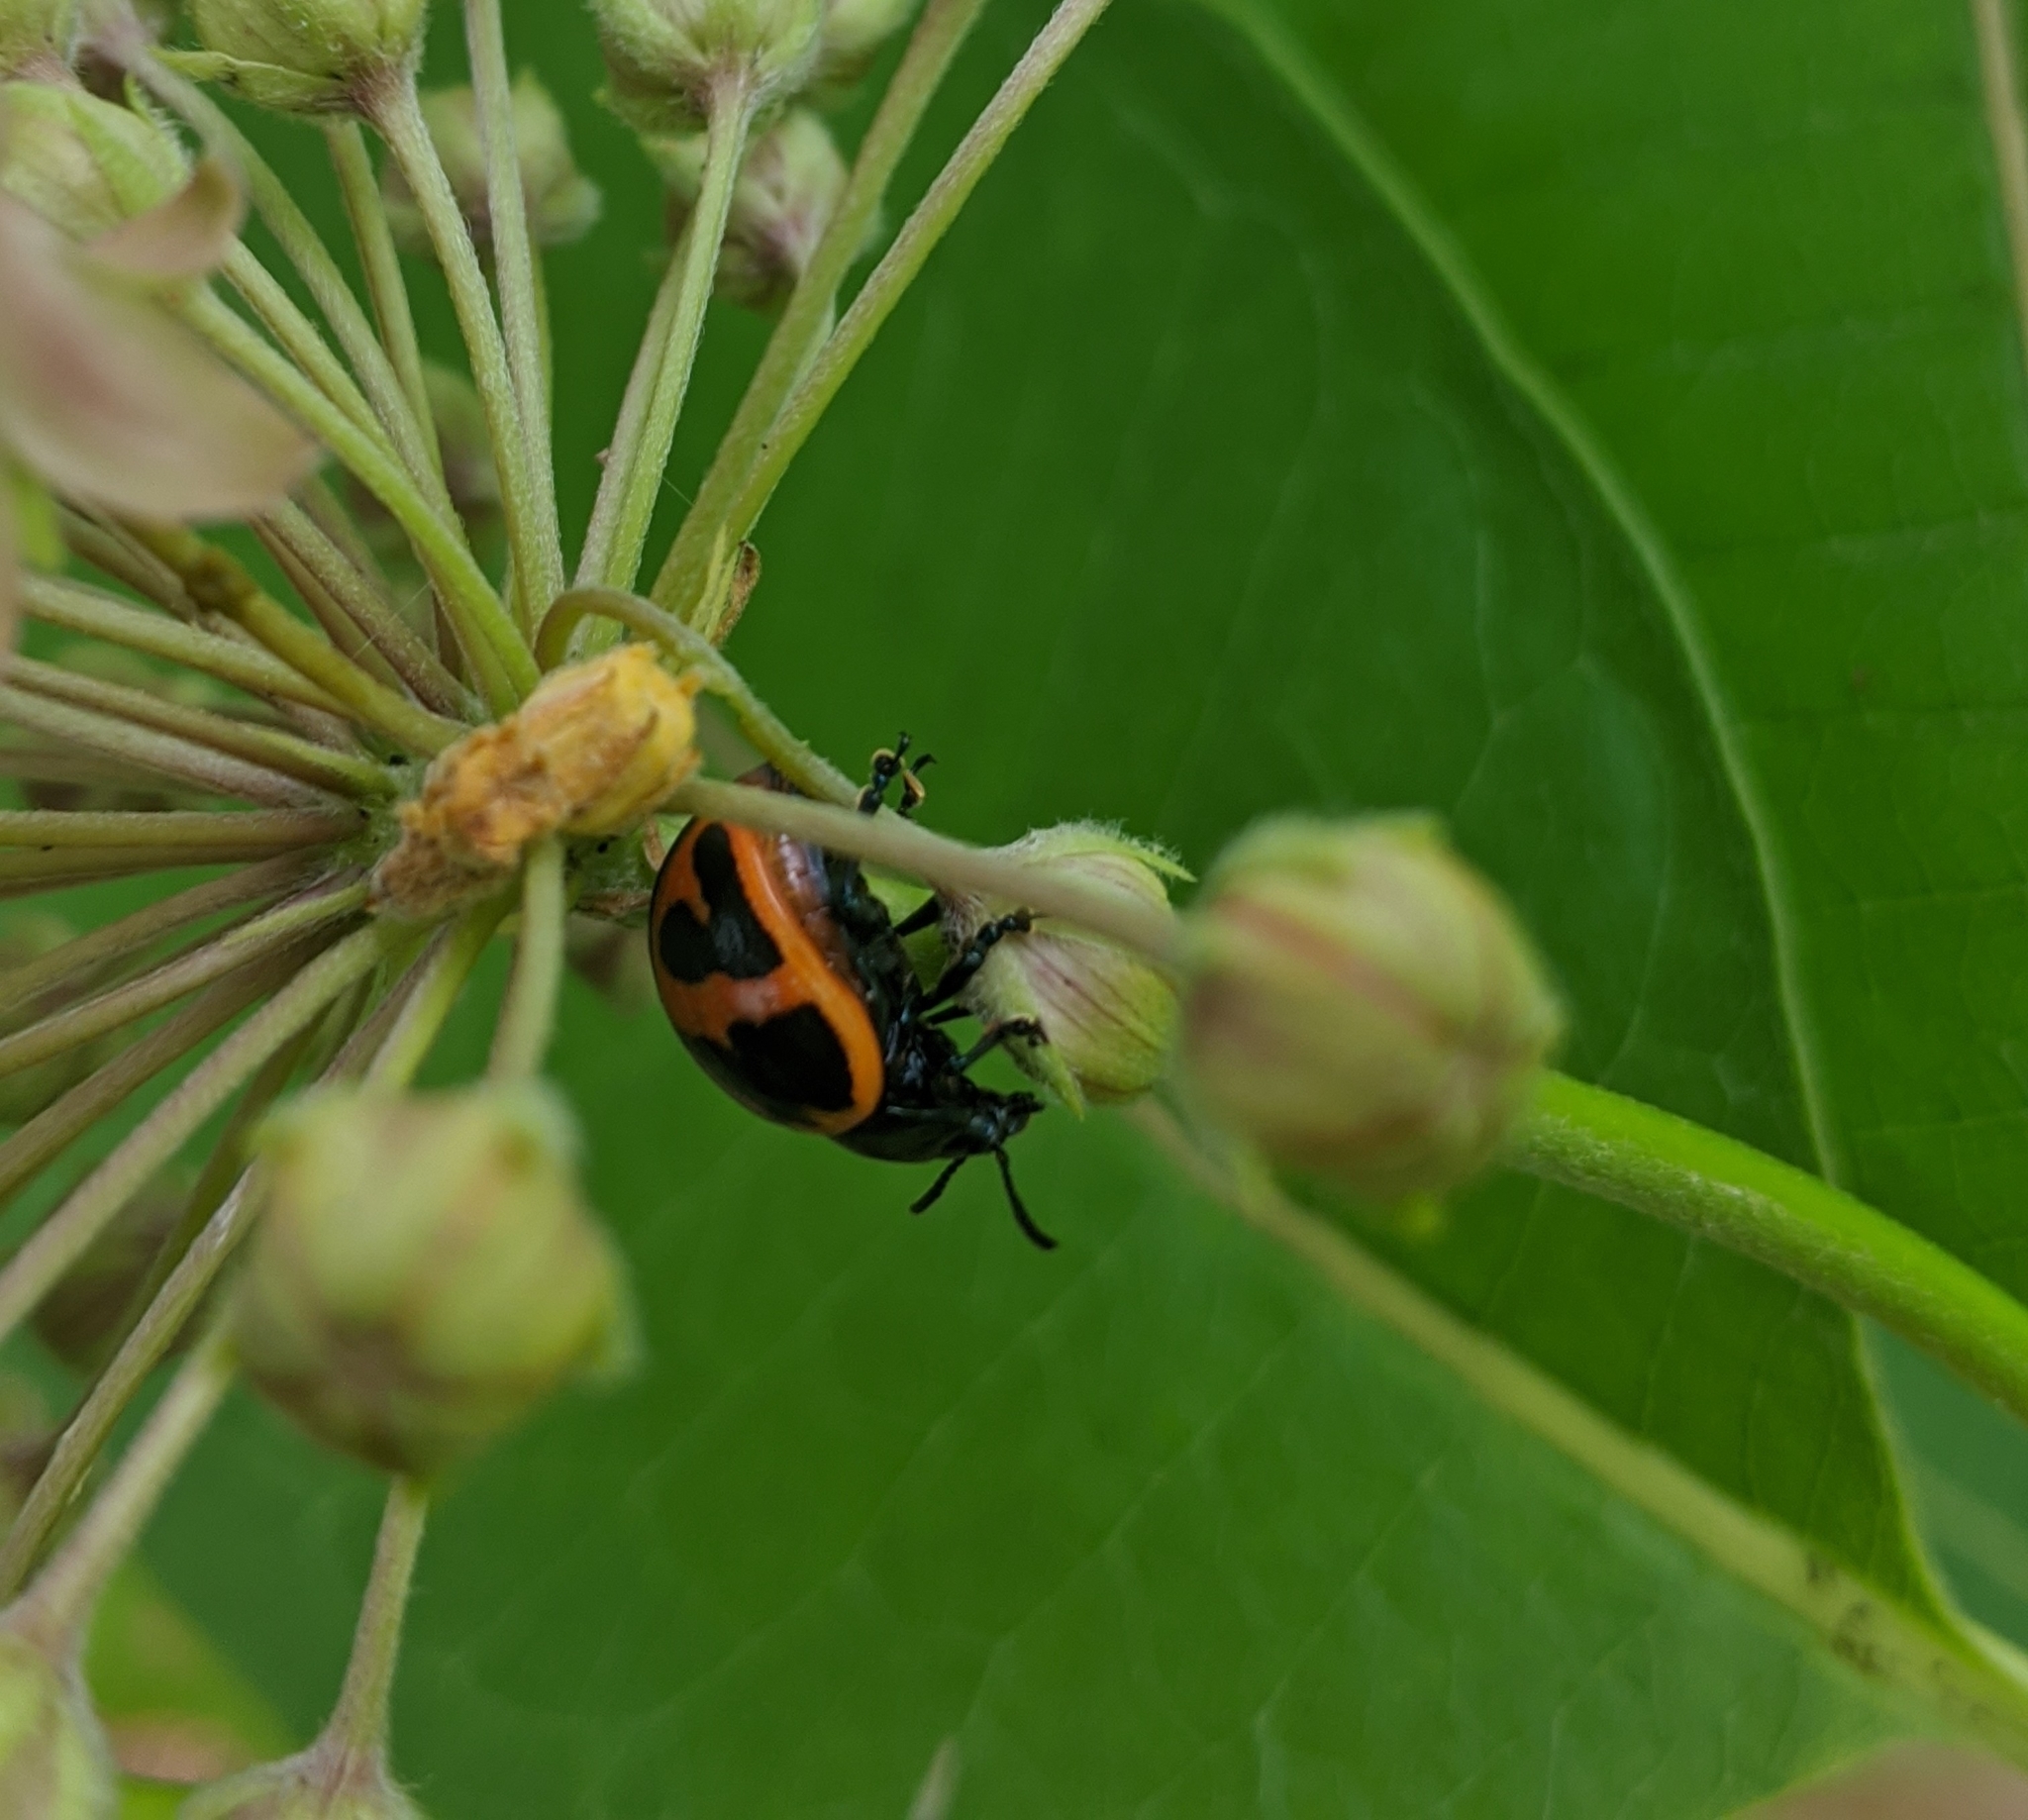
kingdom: Animalia
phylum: Arthropoda
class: Insecta
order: Coleoptera
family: Chrysomelidae
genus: Labidomera
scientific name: Labidomera clivicollis
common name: Swamp milkweed leaf beetle
